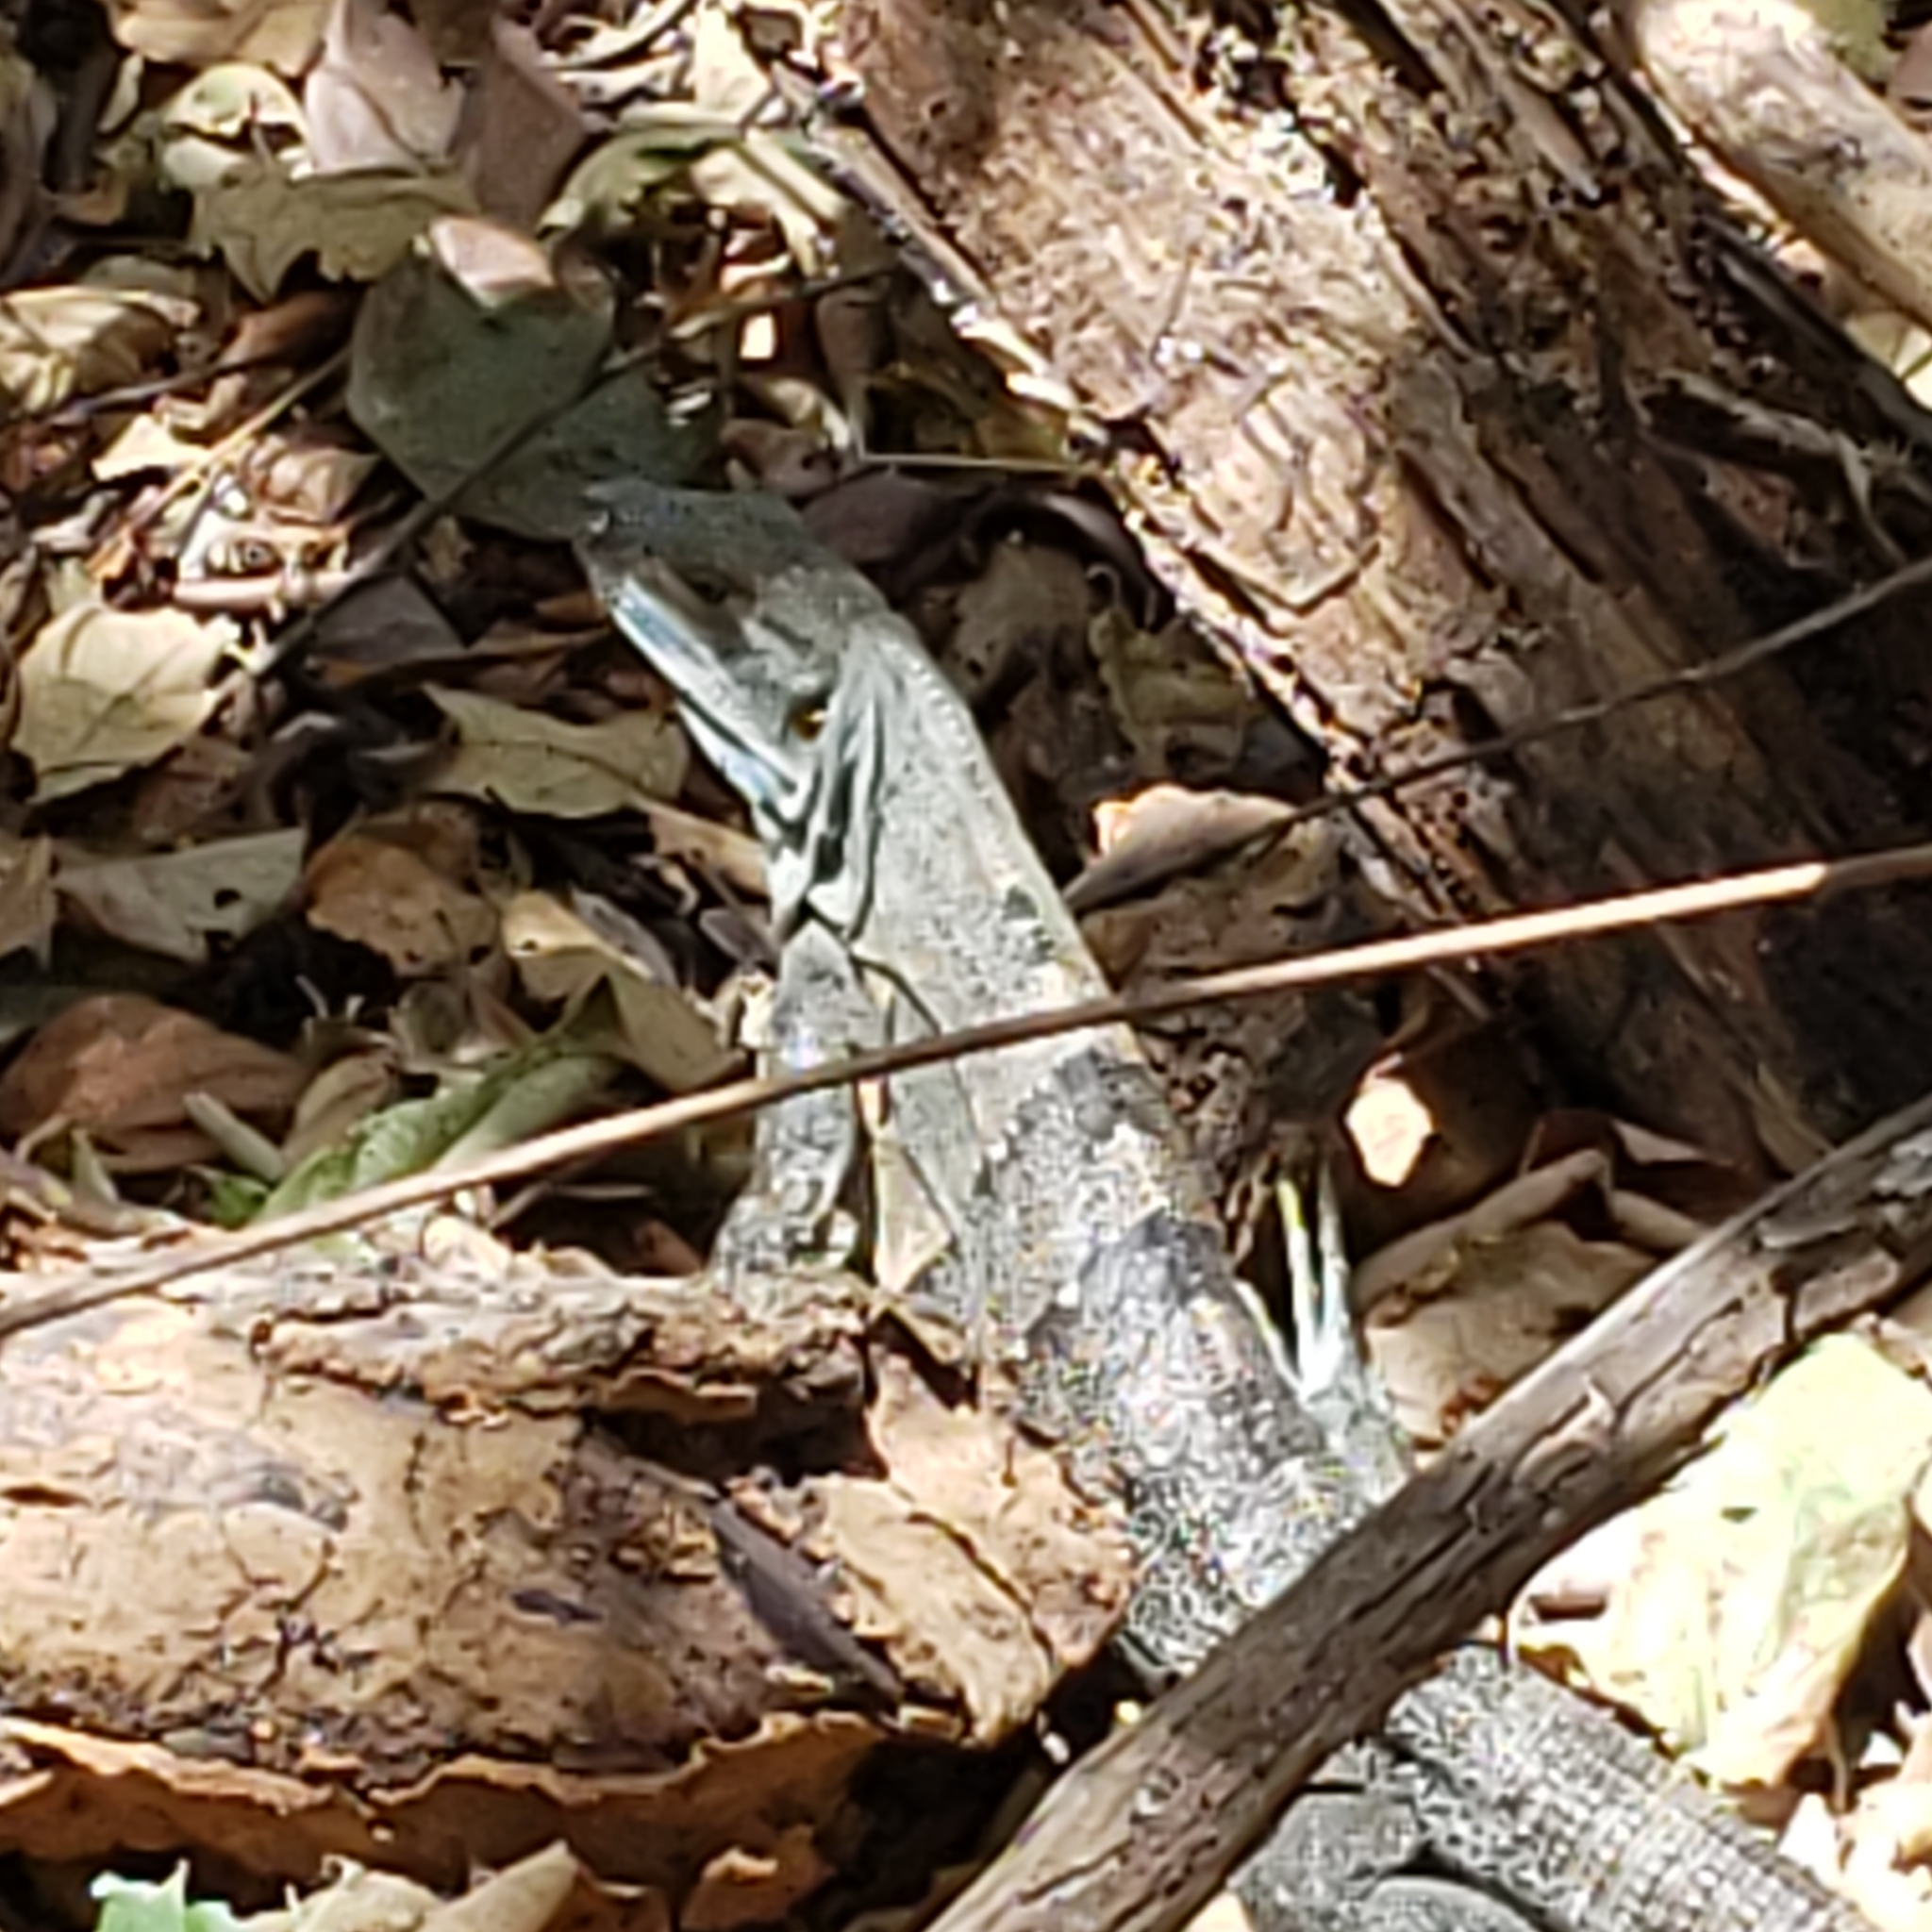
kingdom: Animalia
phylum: Chordata
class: Squamata
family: Iguanidae
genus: Ctenosaura
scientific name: Ctenosaura similis
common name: Black spiny-tailed iguana
